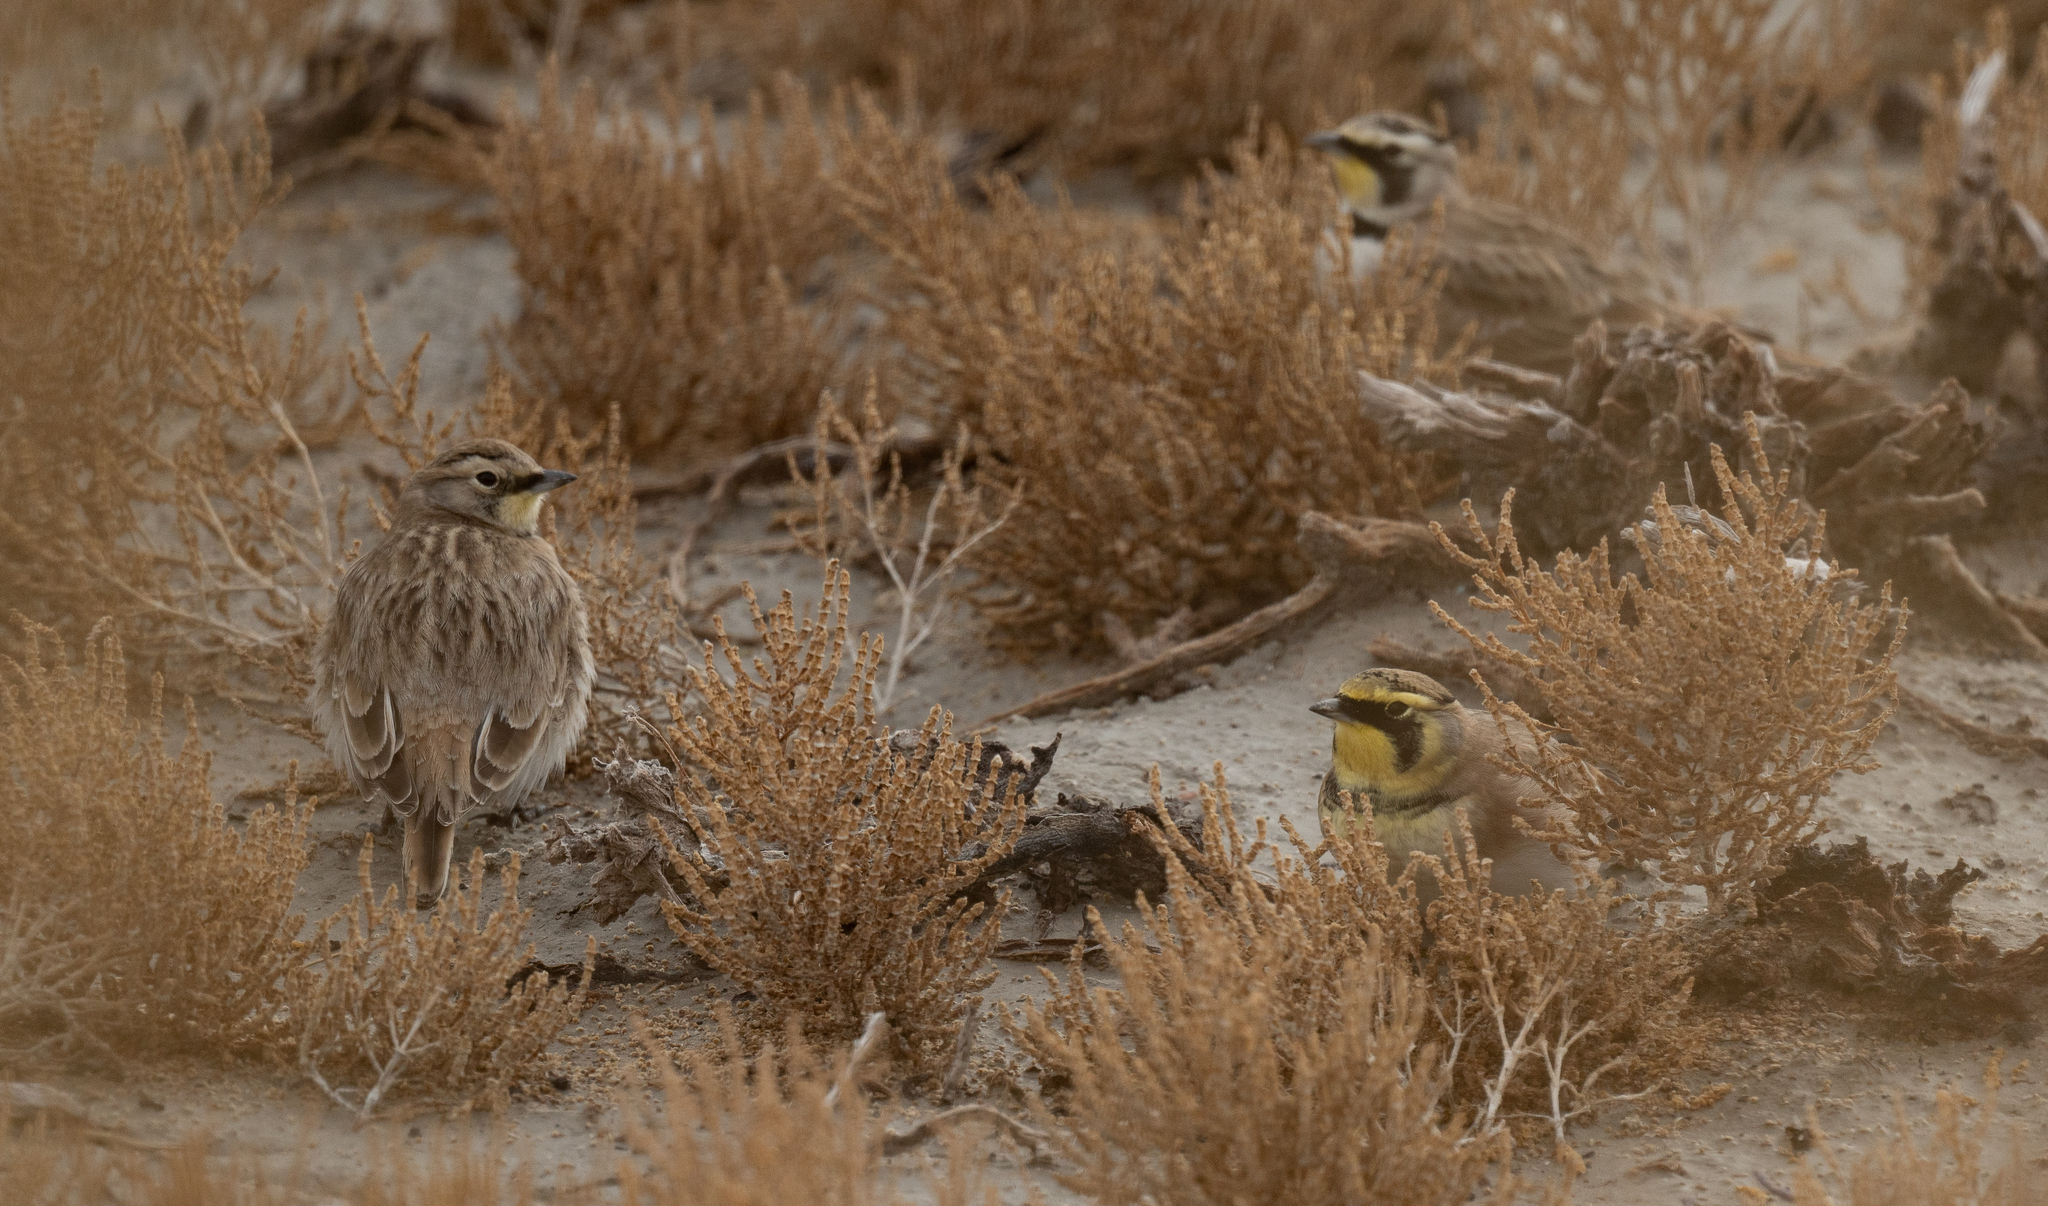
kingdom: Animalia
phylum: Chordata
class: Aves
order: Passeriformes
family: Alaudidae
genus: Eremophila
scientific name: Eremophila alpestris
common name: Horned lark
